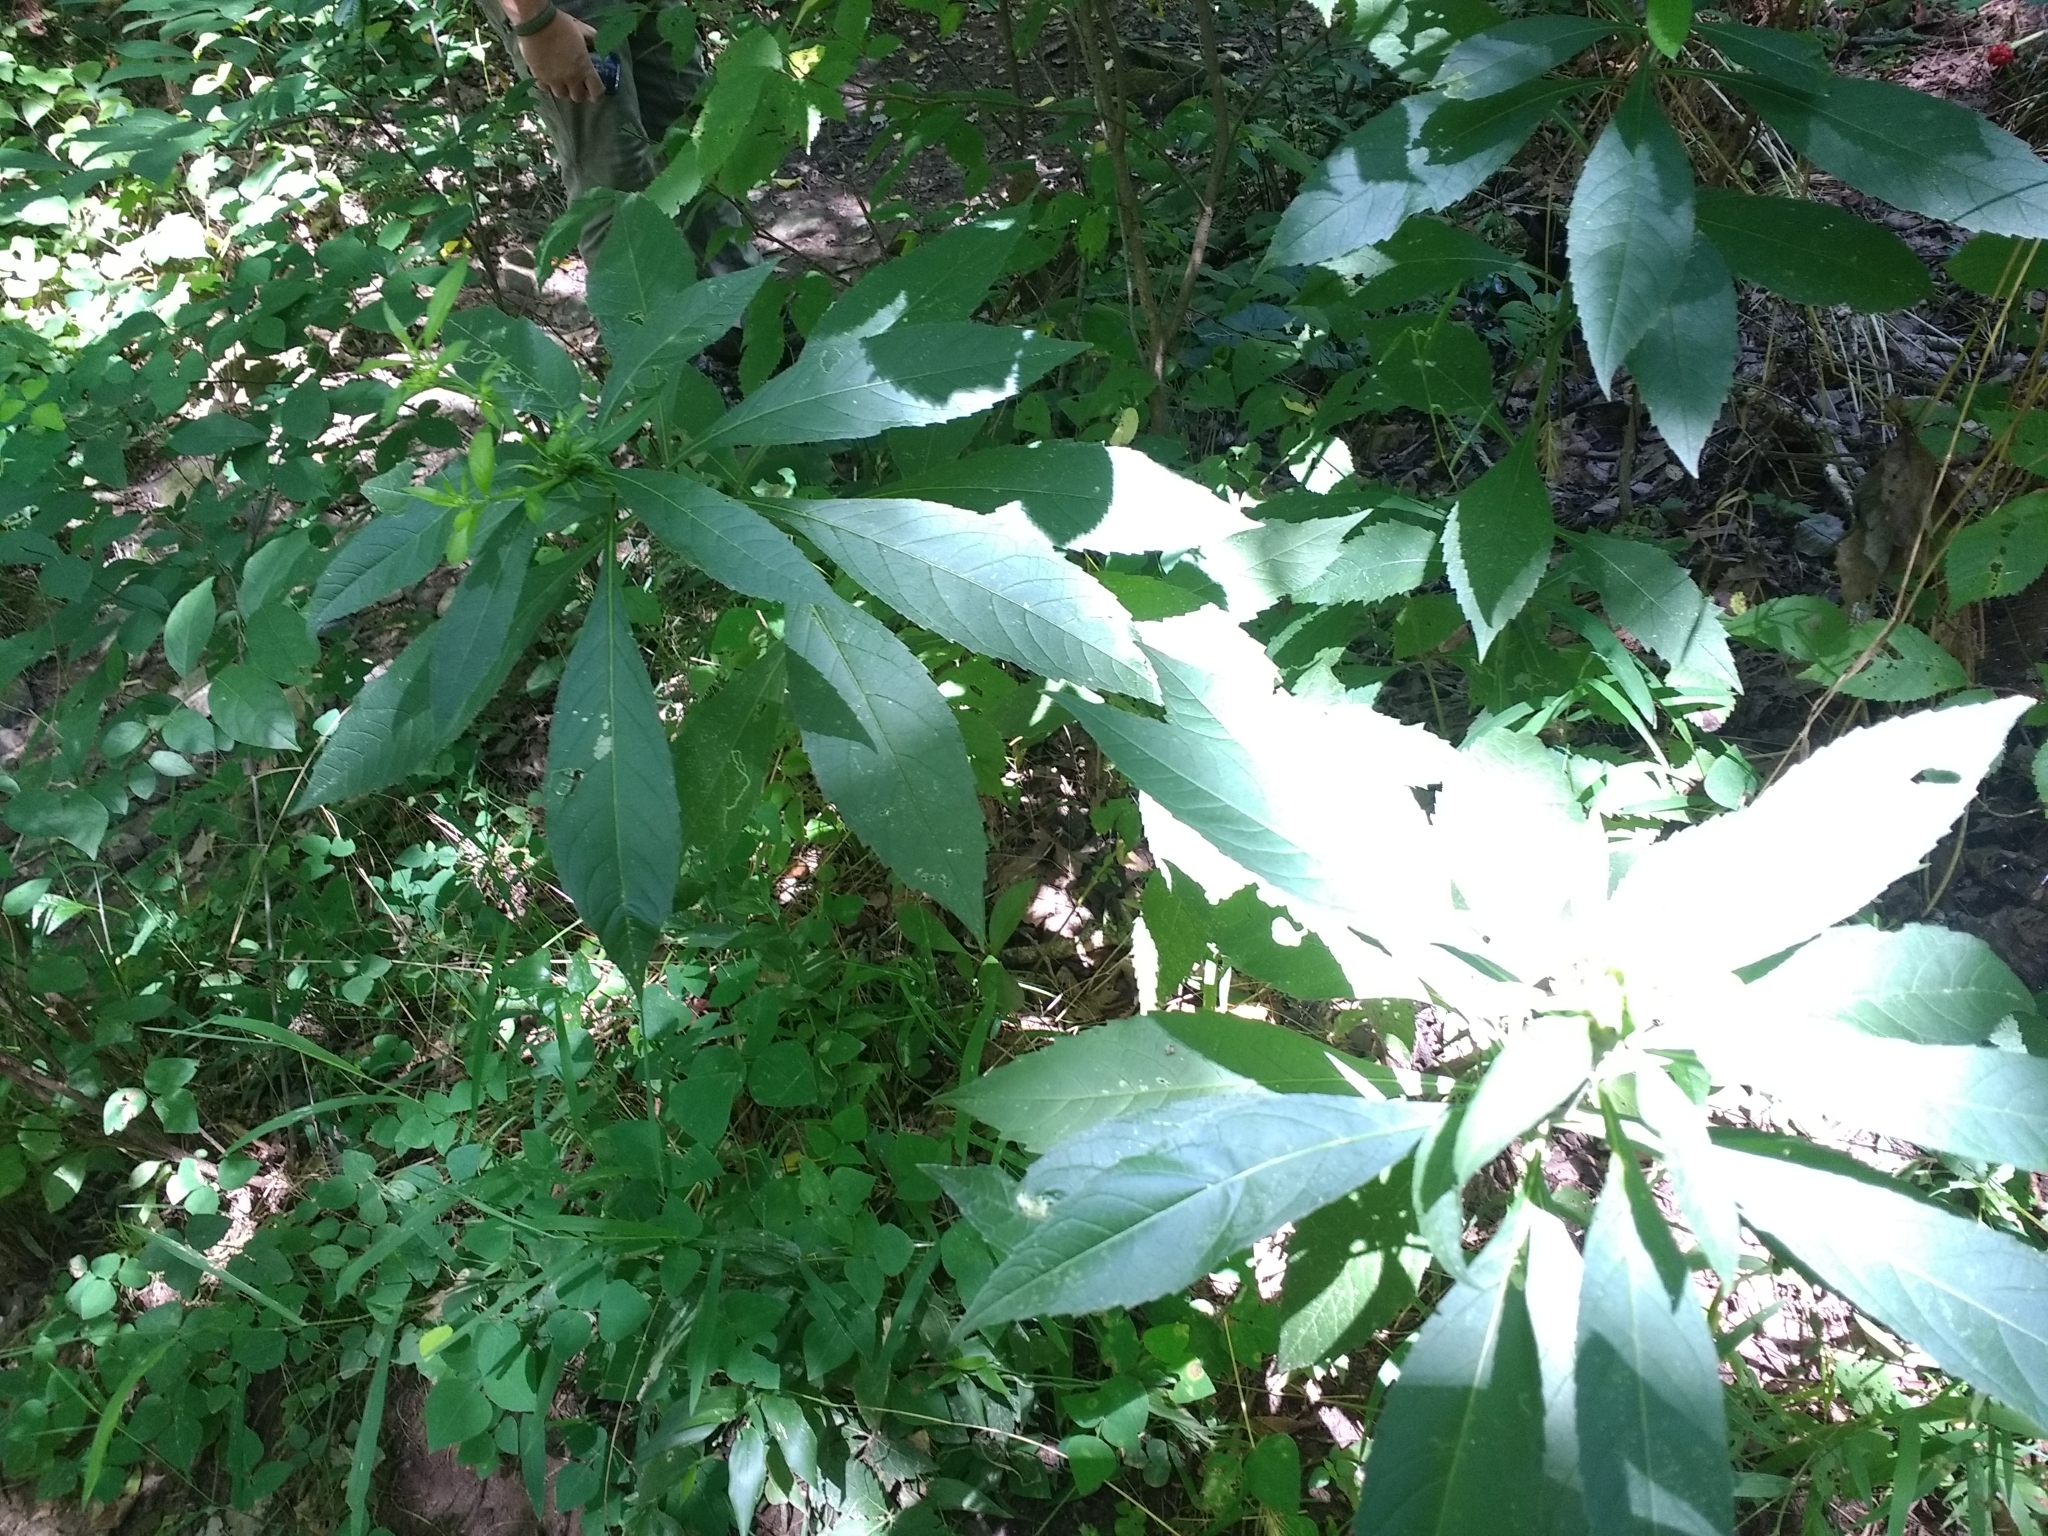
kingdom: Plantae
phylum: Tracheophyta
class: Magnoliopsida
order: Asterales
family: Asteraceae
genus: Verbesina
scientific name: Verbesina alternifolia
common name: Wingstem
